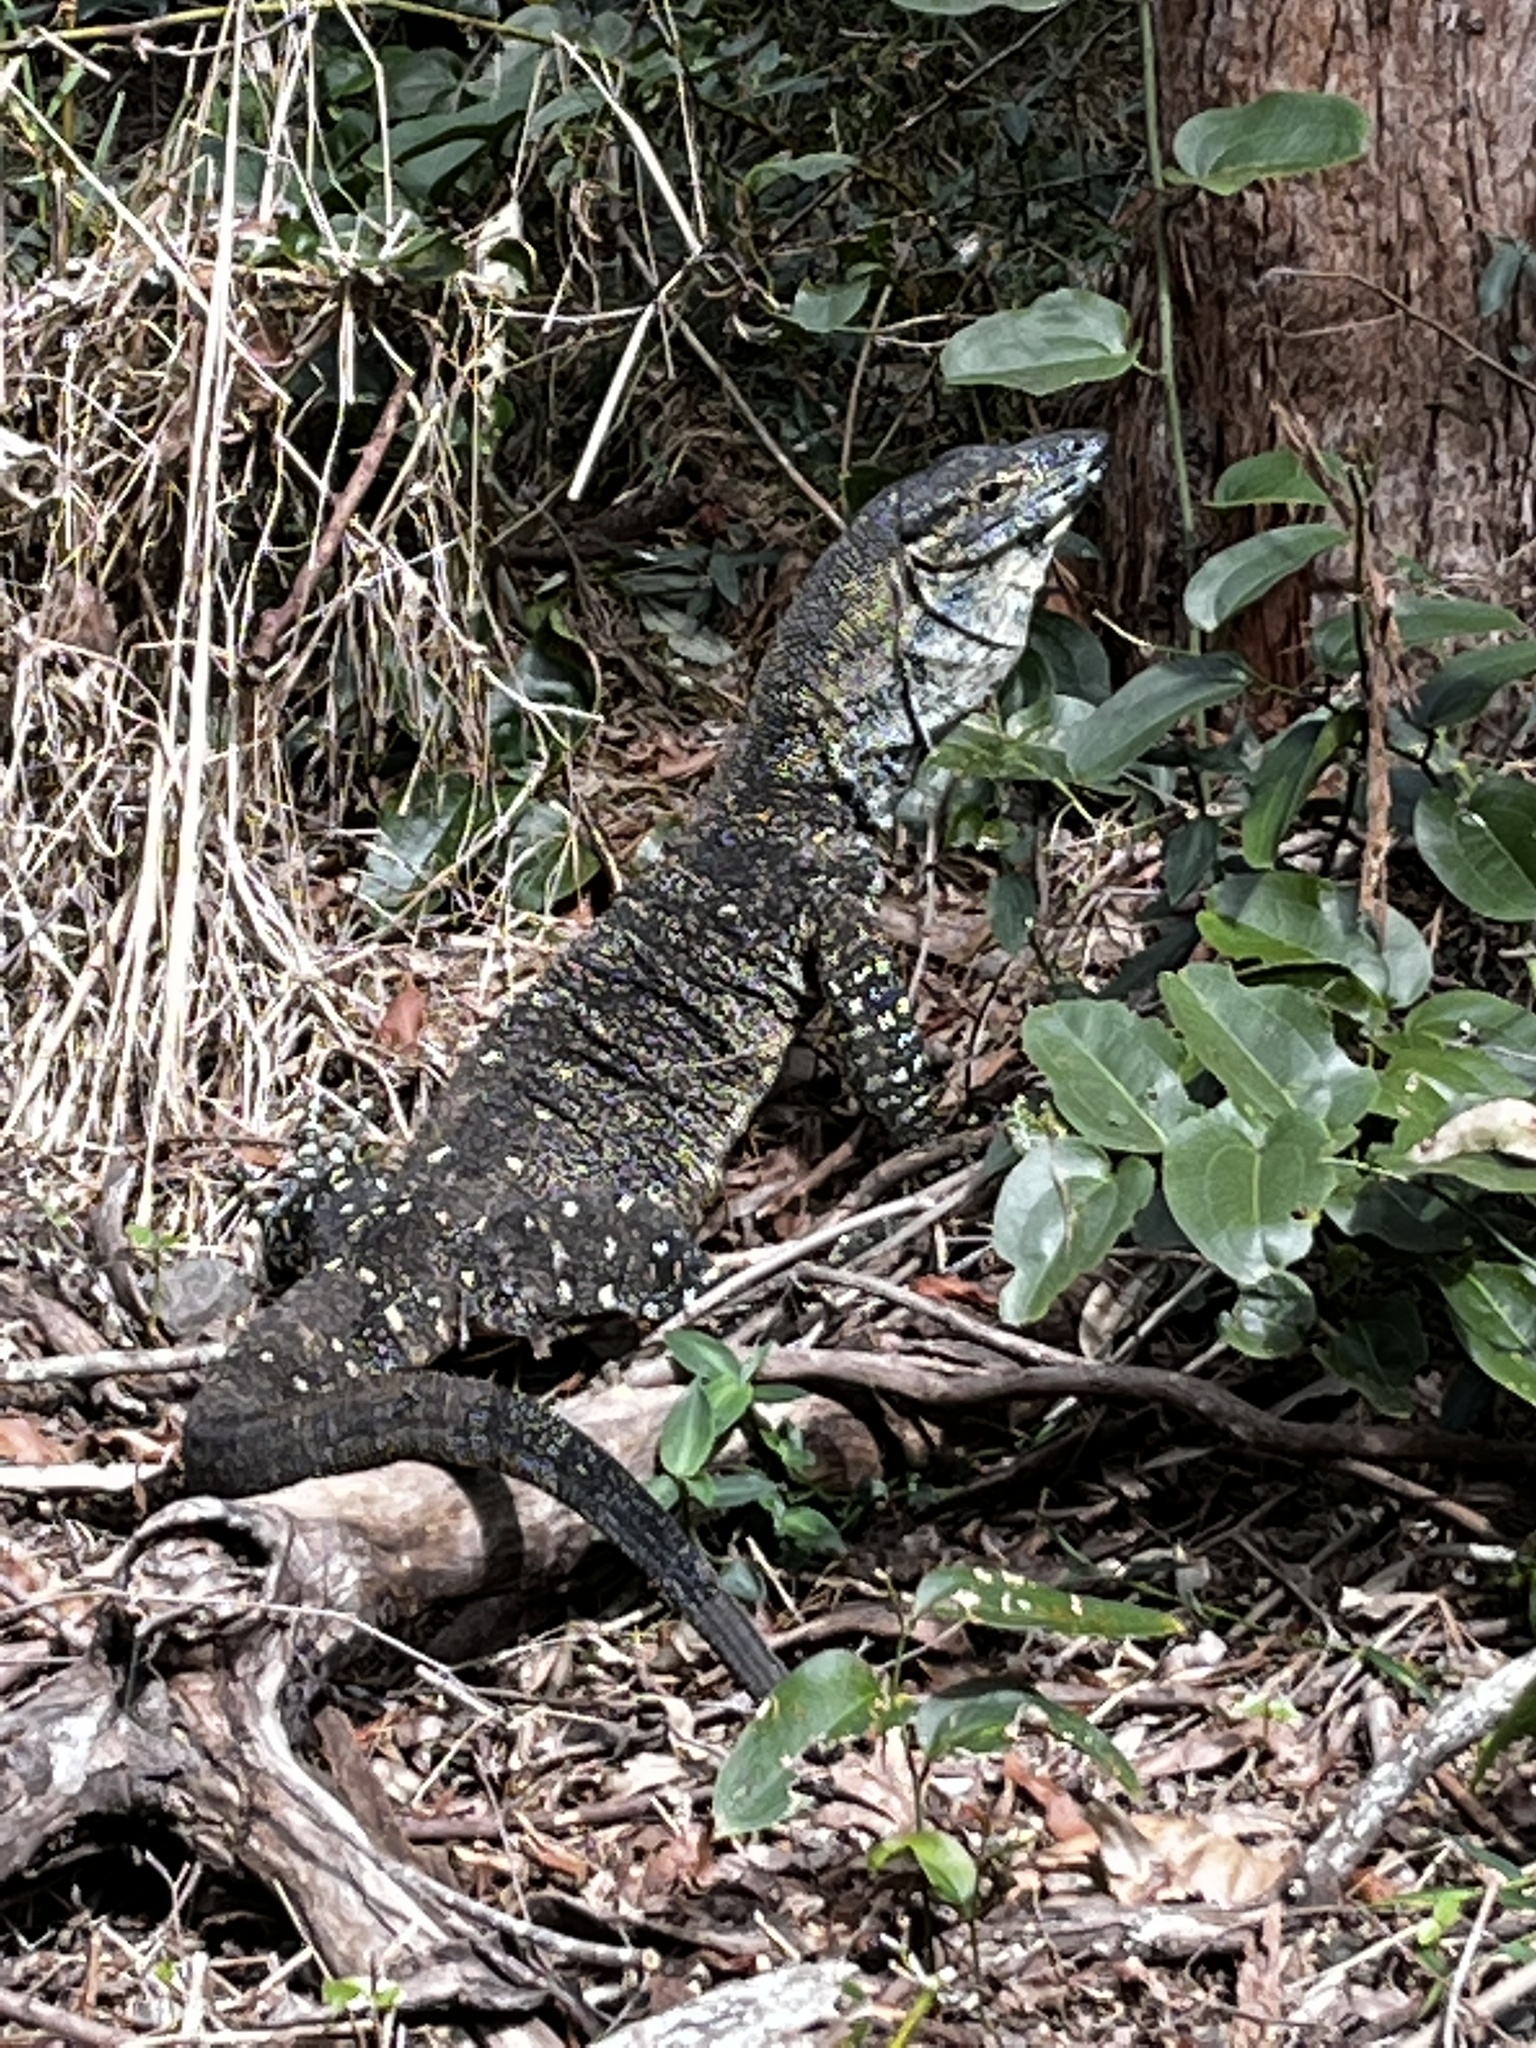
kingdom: Animalia
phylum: Chordata
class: Squamata
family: Varanidae
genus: Varanus
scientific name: Varanus varius
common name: Lace monitor
